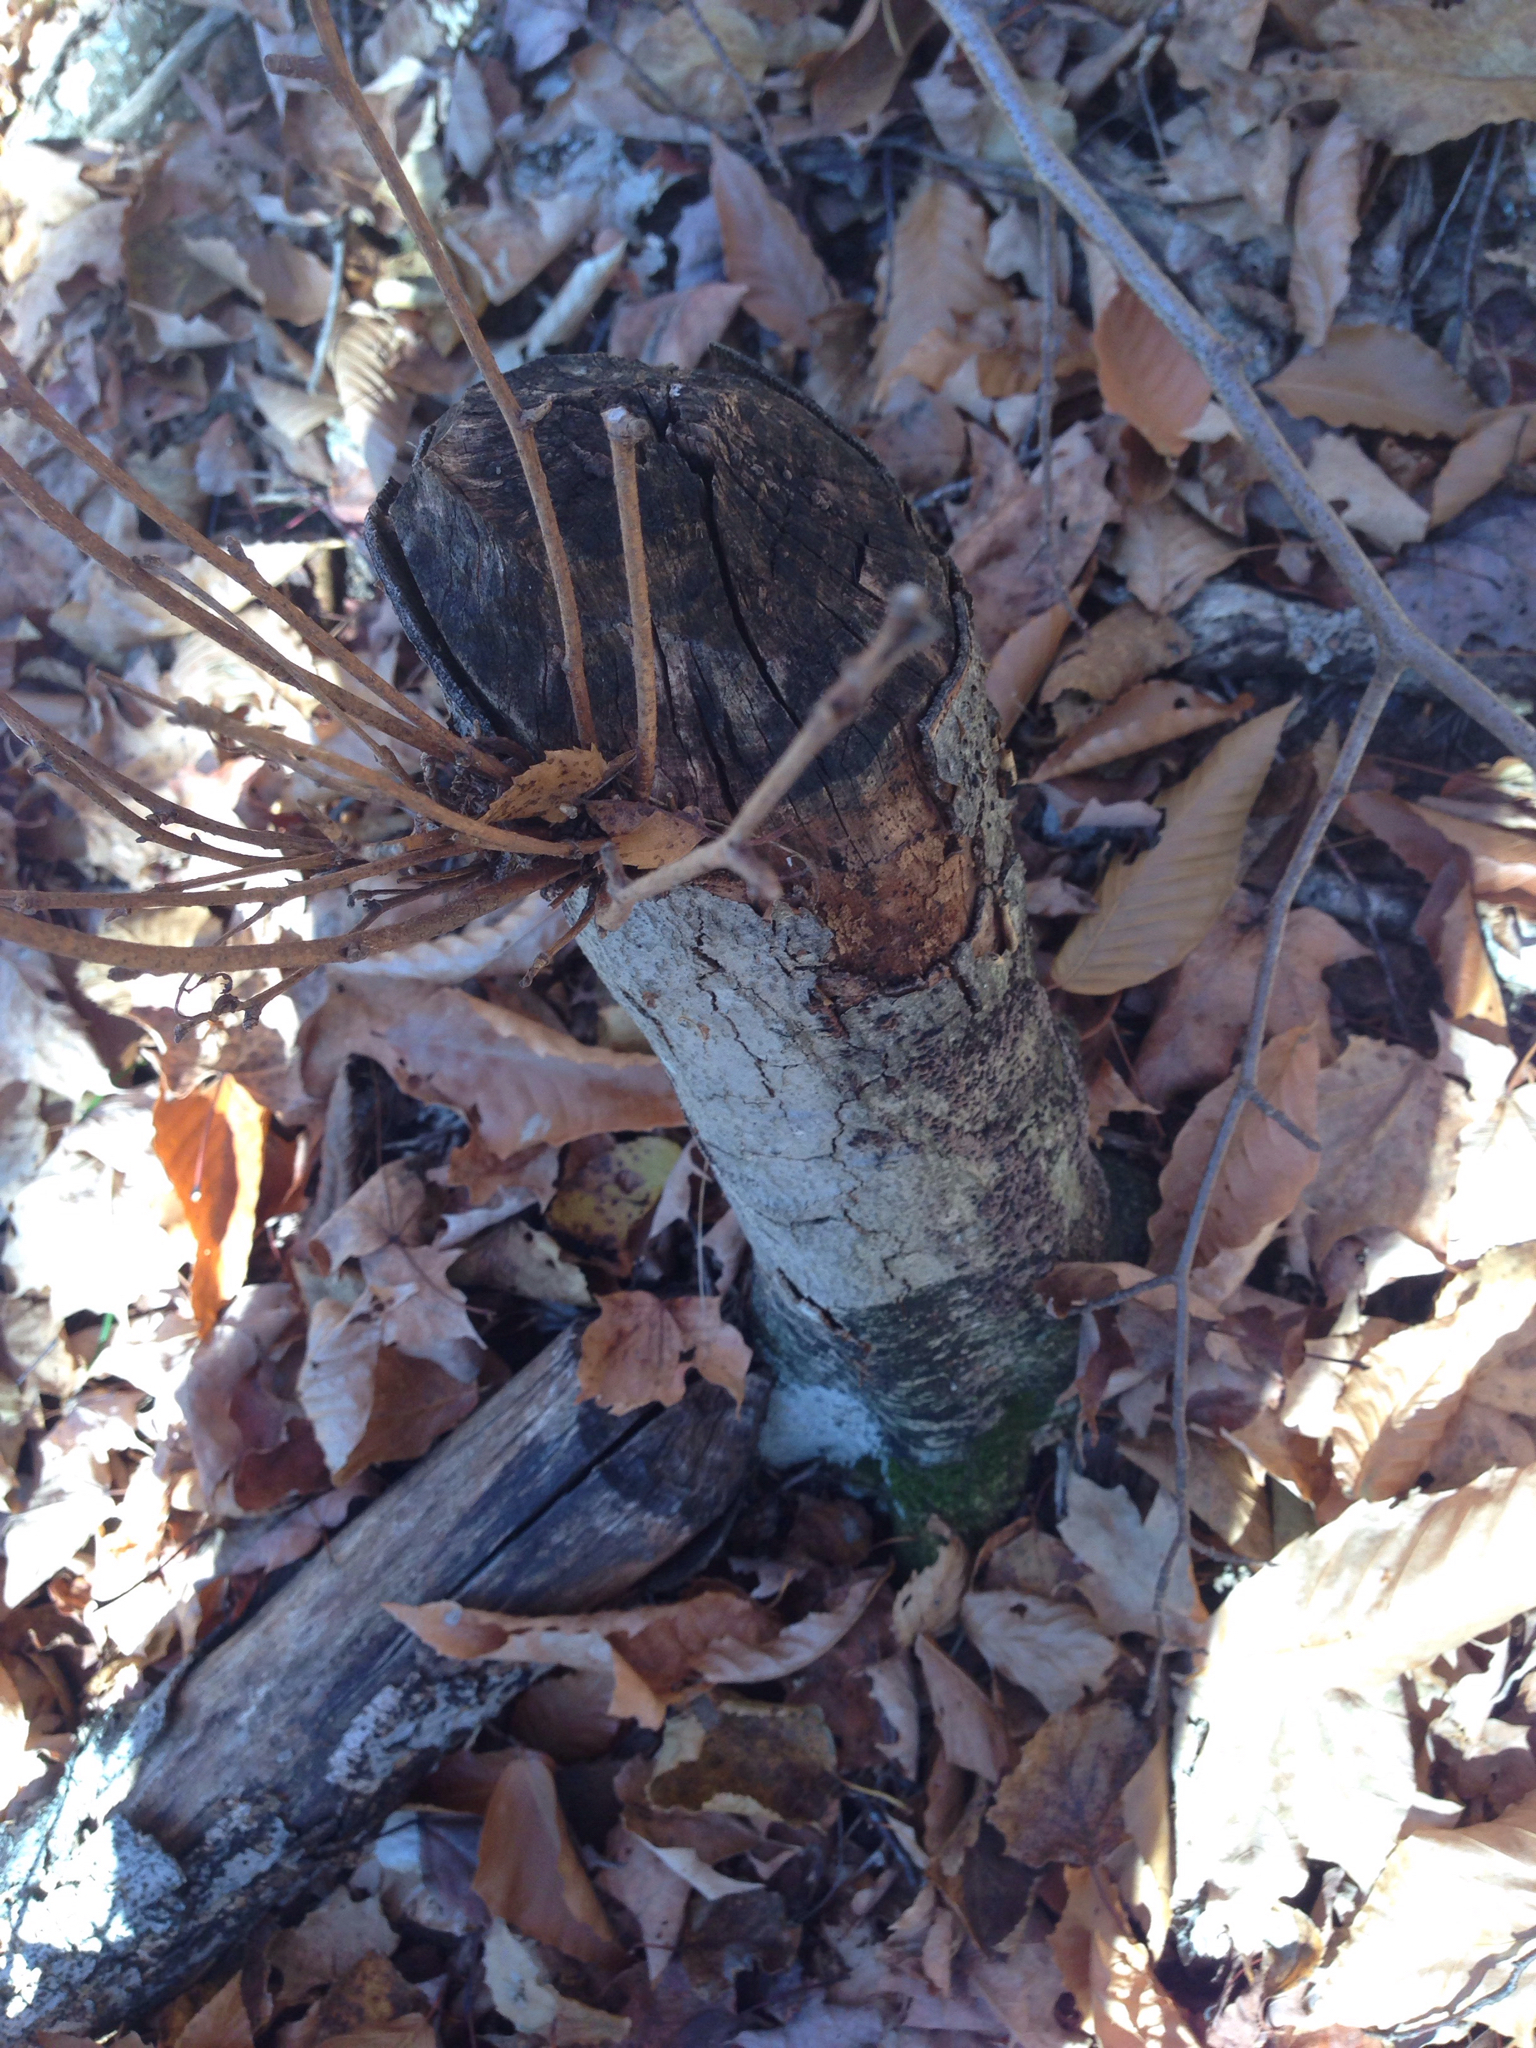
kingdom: Animalia
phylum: Chordata
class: Mammalia
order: Rodentia
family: Castoridae
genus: Castor
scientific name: Castor canadensis
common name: American beaver
